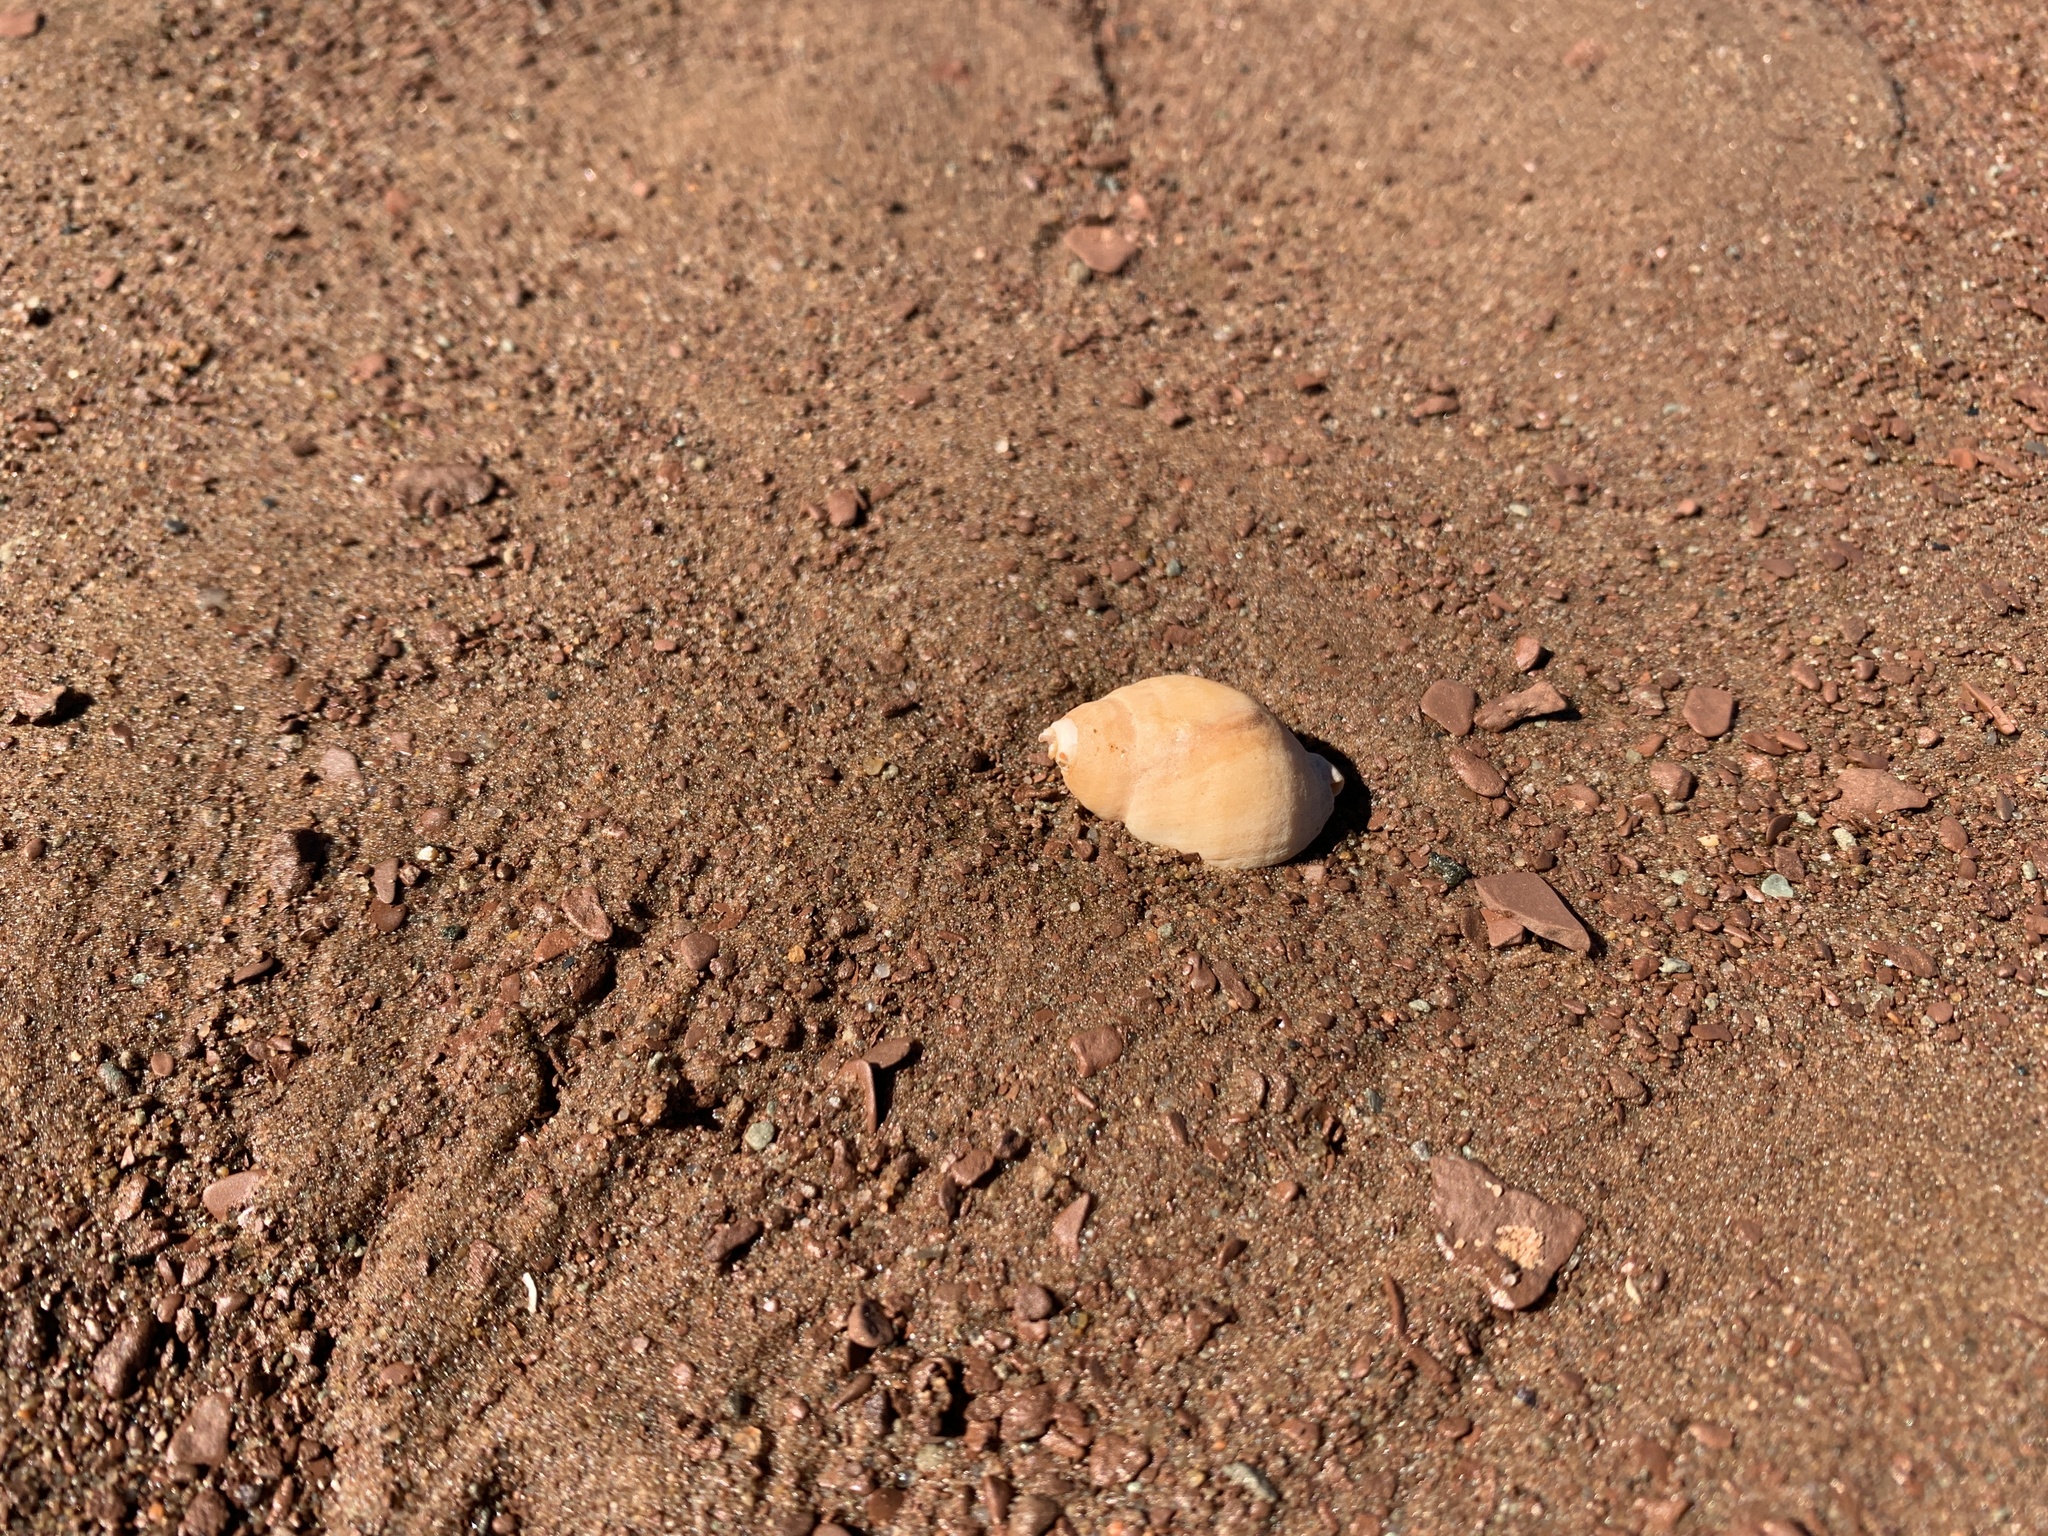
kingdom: Animalia
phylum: Mollusca
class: Gastropoda
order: Neogastropoda
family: Muricidae
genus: Nucella
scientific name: Nucella lapillus
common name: Dog whelk
